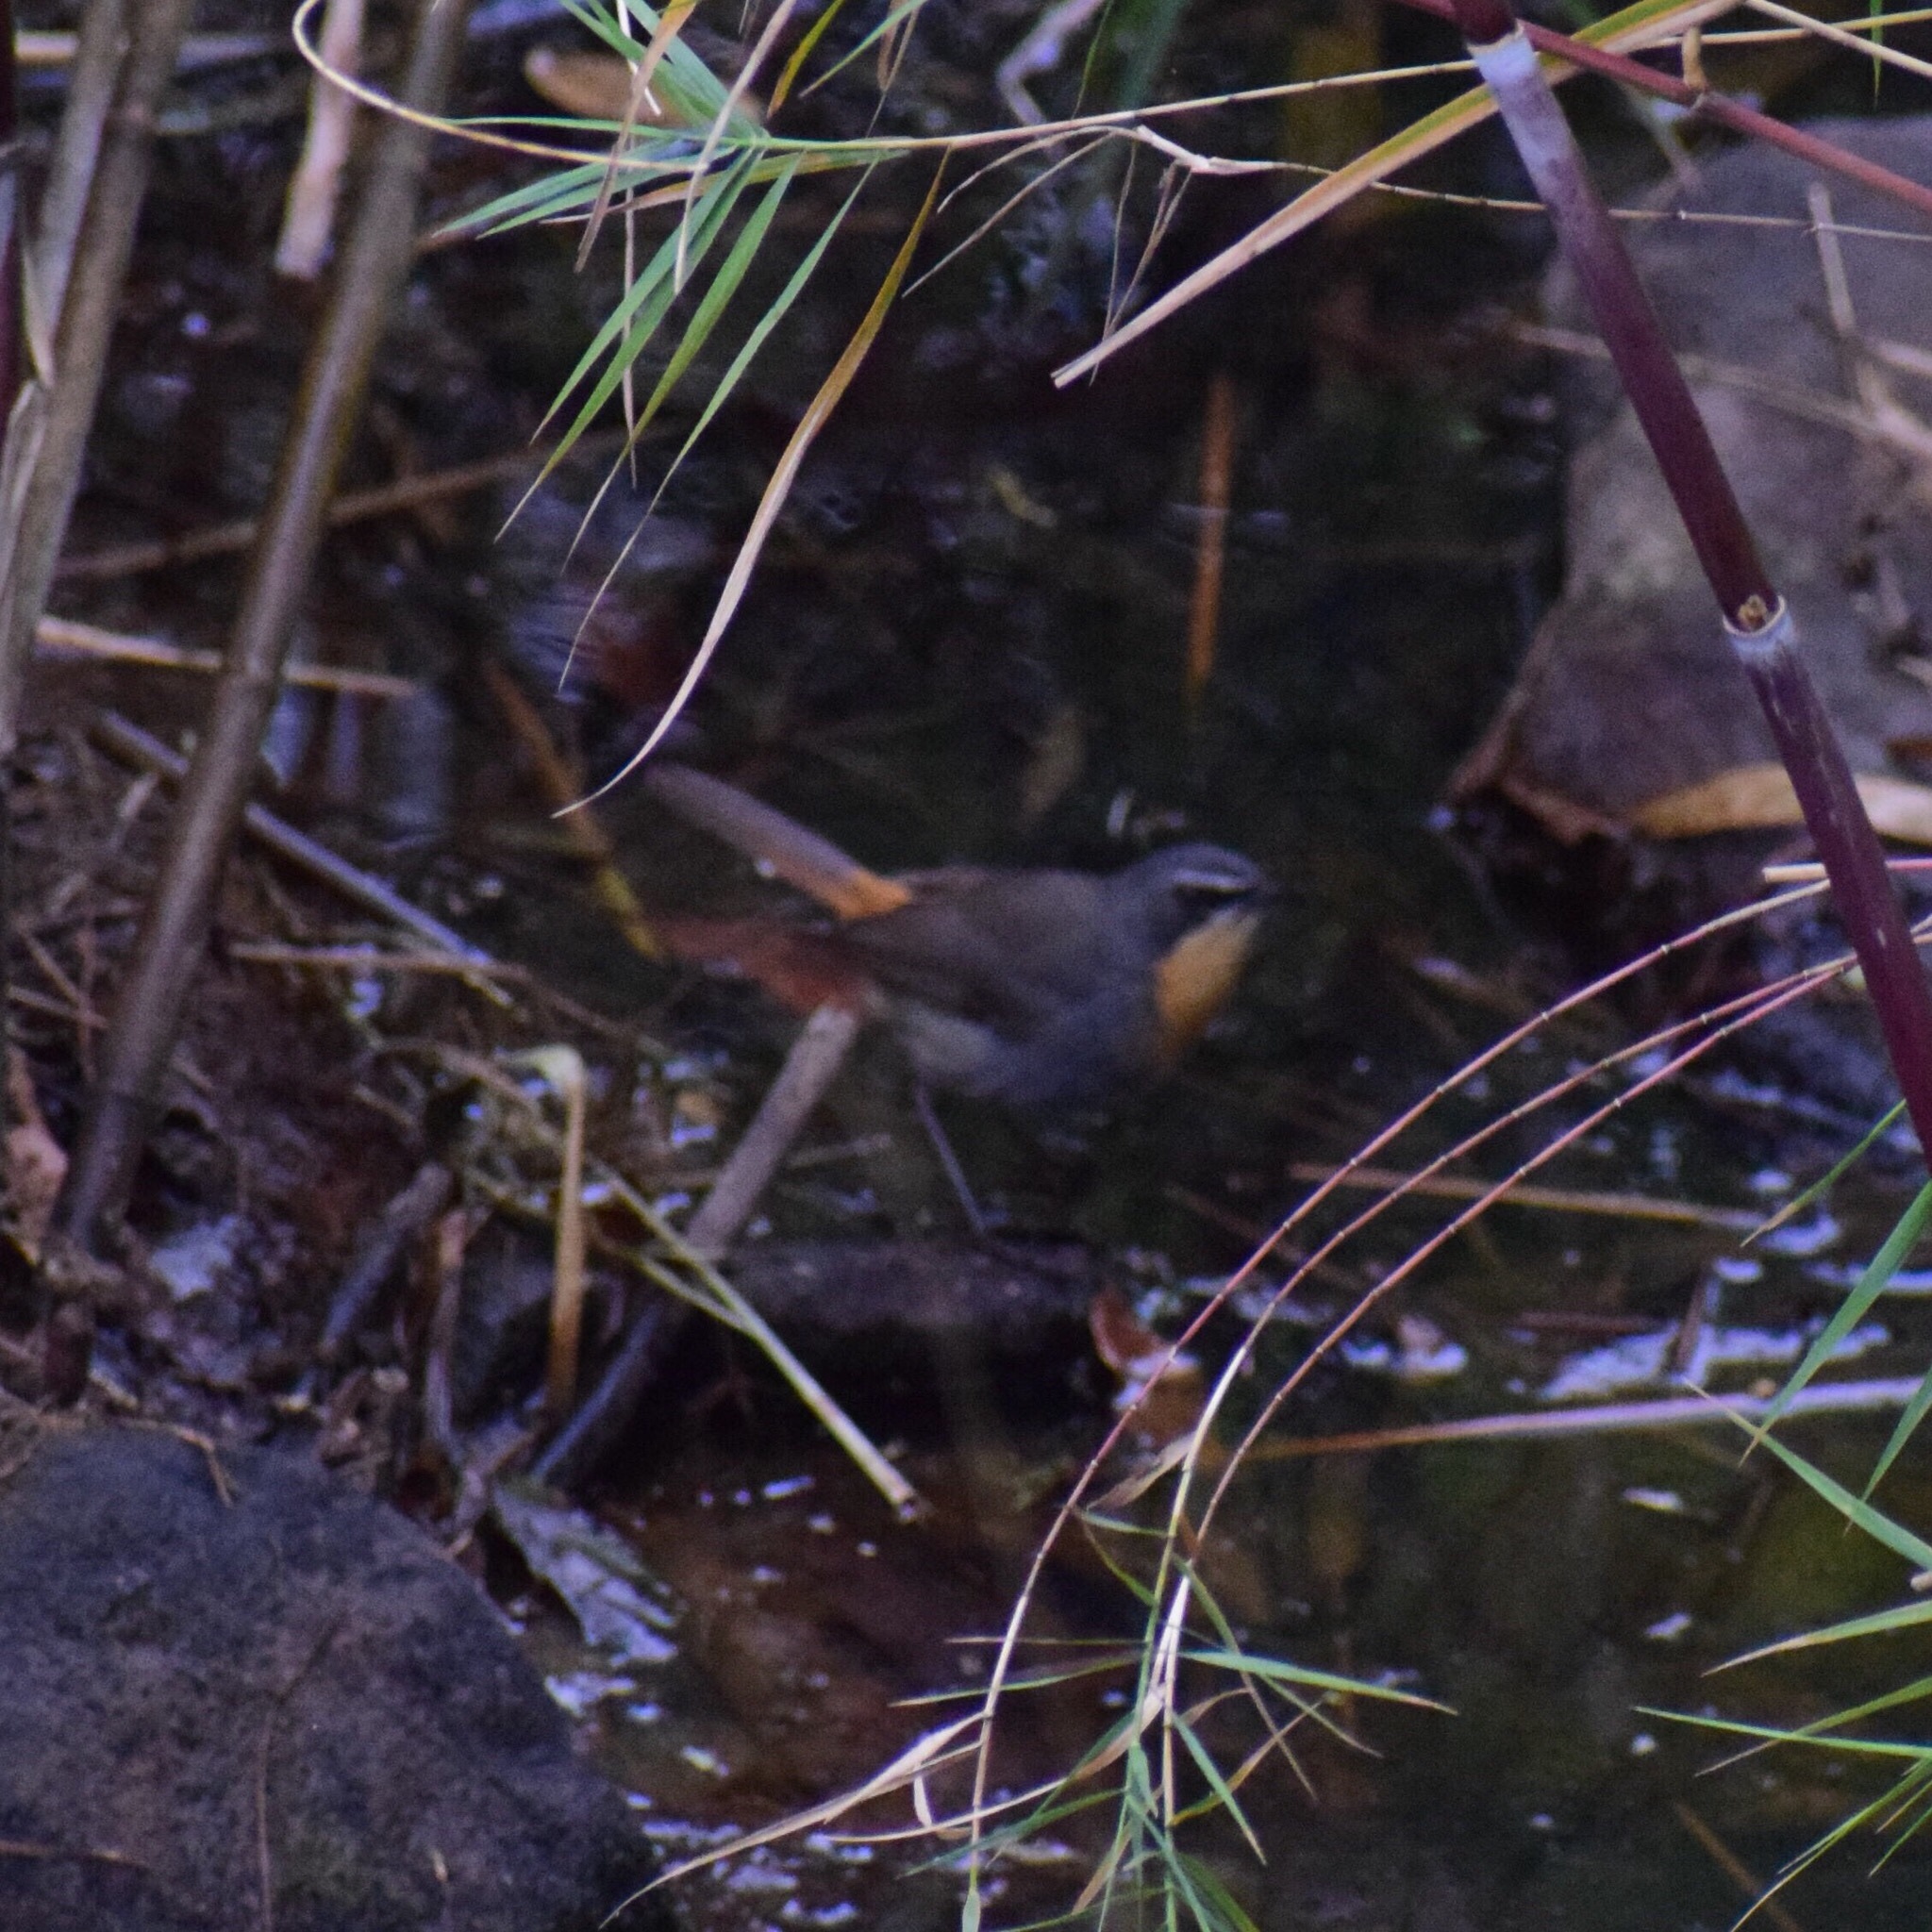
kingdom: Animalia
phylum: Chordata
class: Aves
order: Passeriformes
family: Muscicapidae
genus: Cossypha
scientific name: Cossypha caffra
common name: Cape robin-chat
